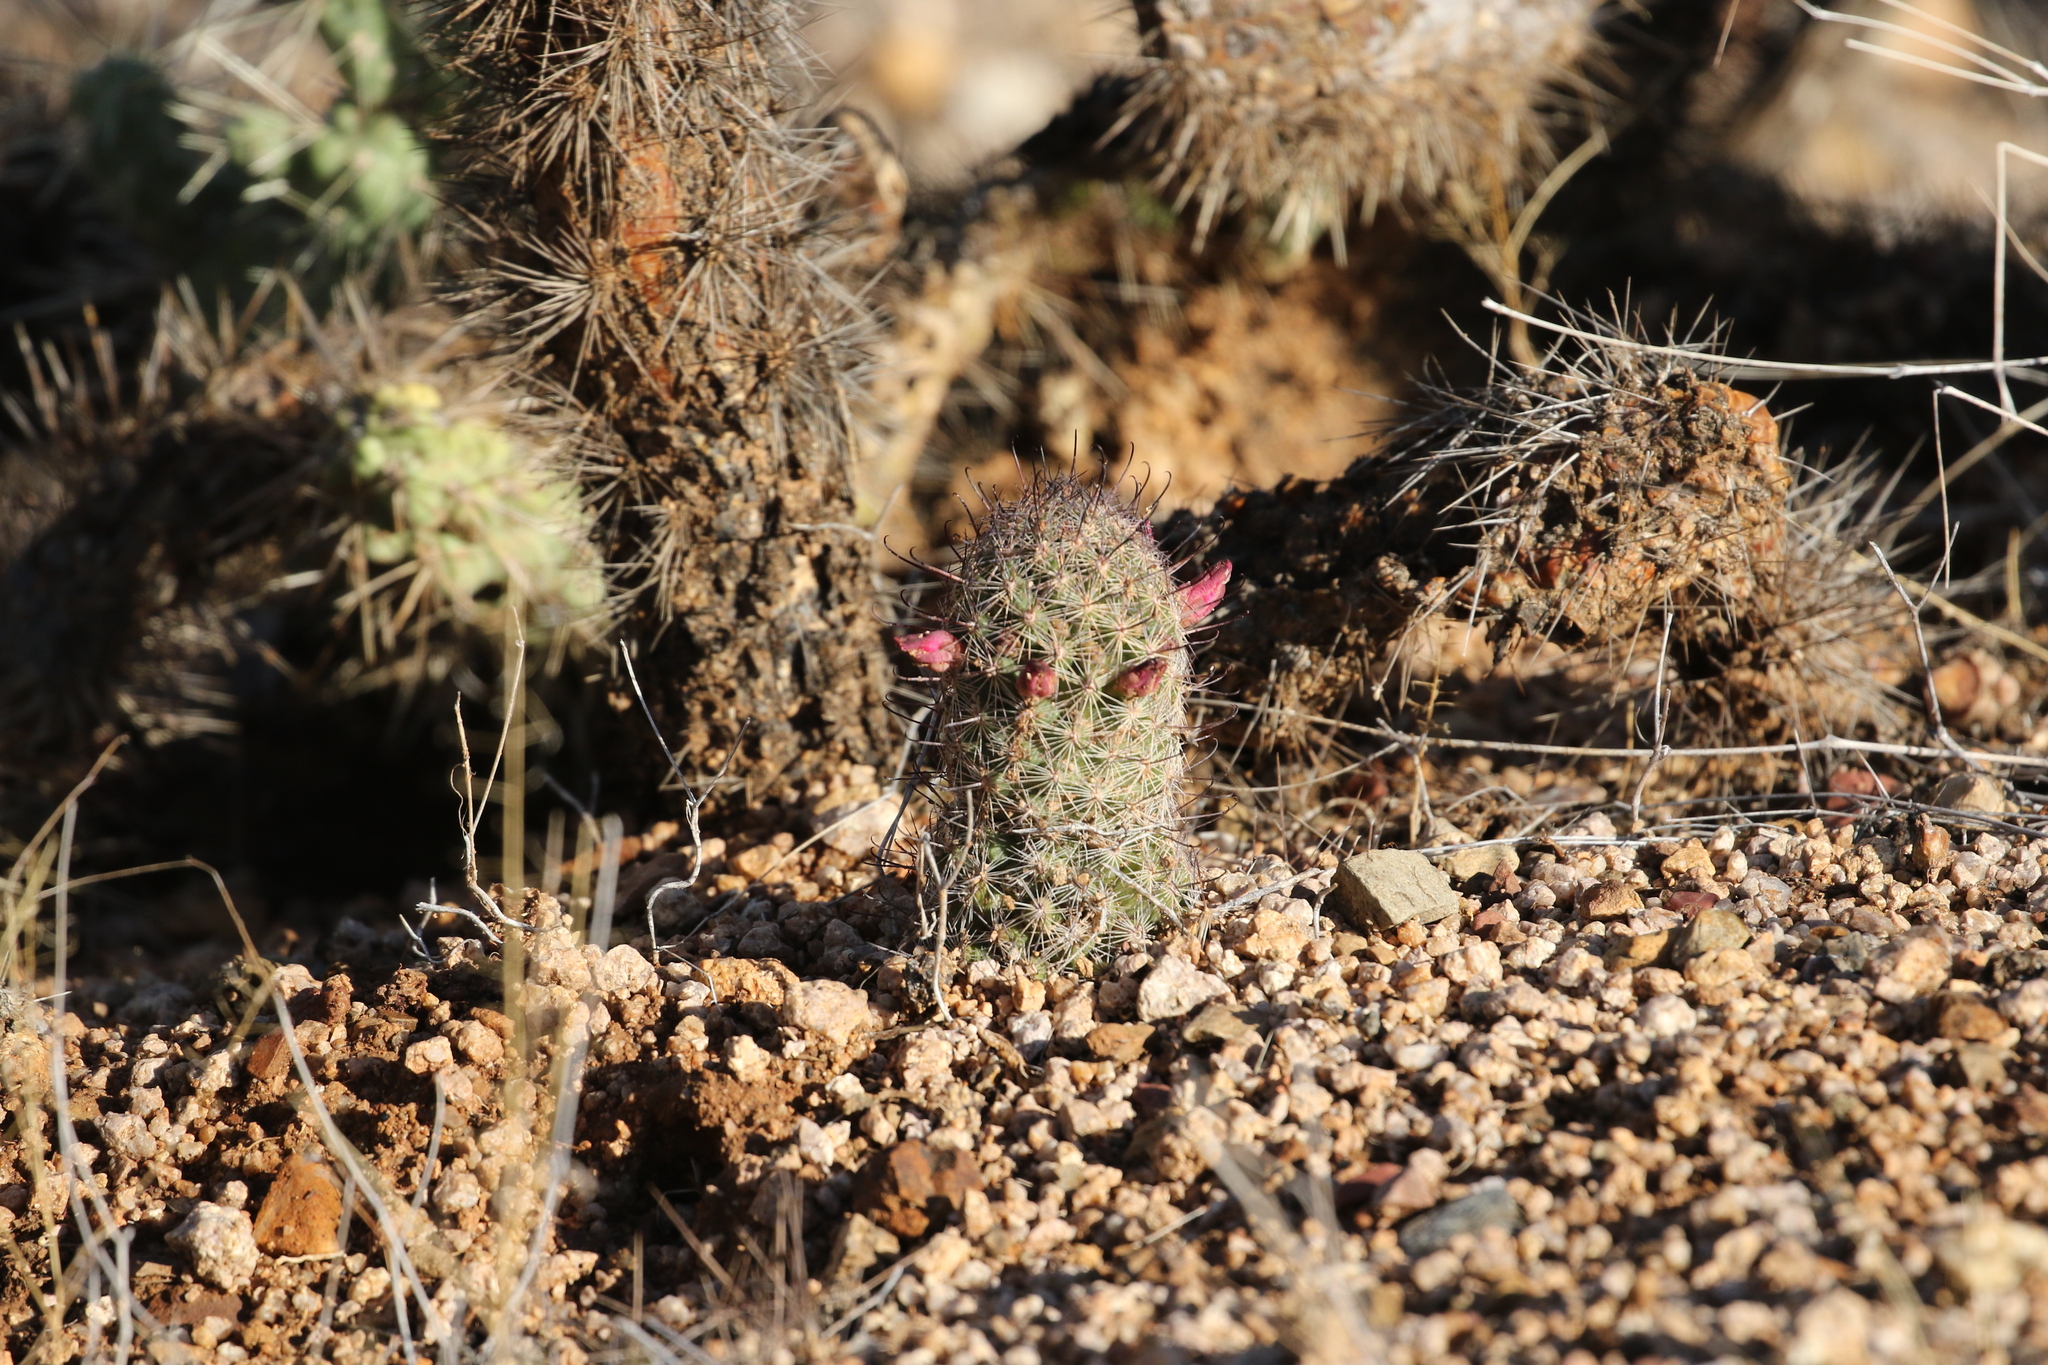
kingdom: Plantae
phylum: Tracheophyta
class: Magnoliopsida
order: Caryophyllales
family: Cactaceae
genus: Cochemiea
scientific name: Cochemiea grahamii
